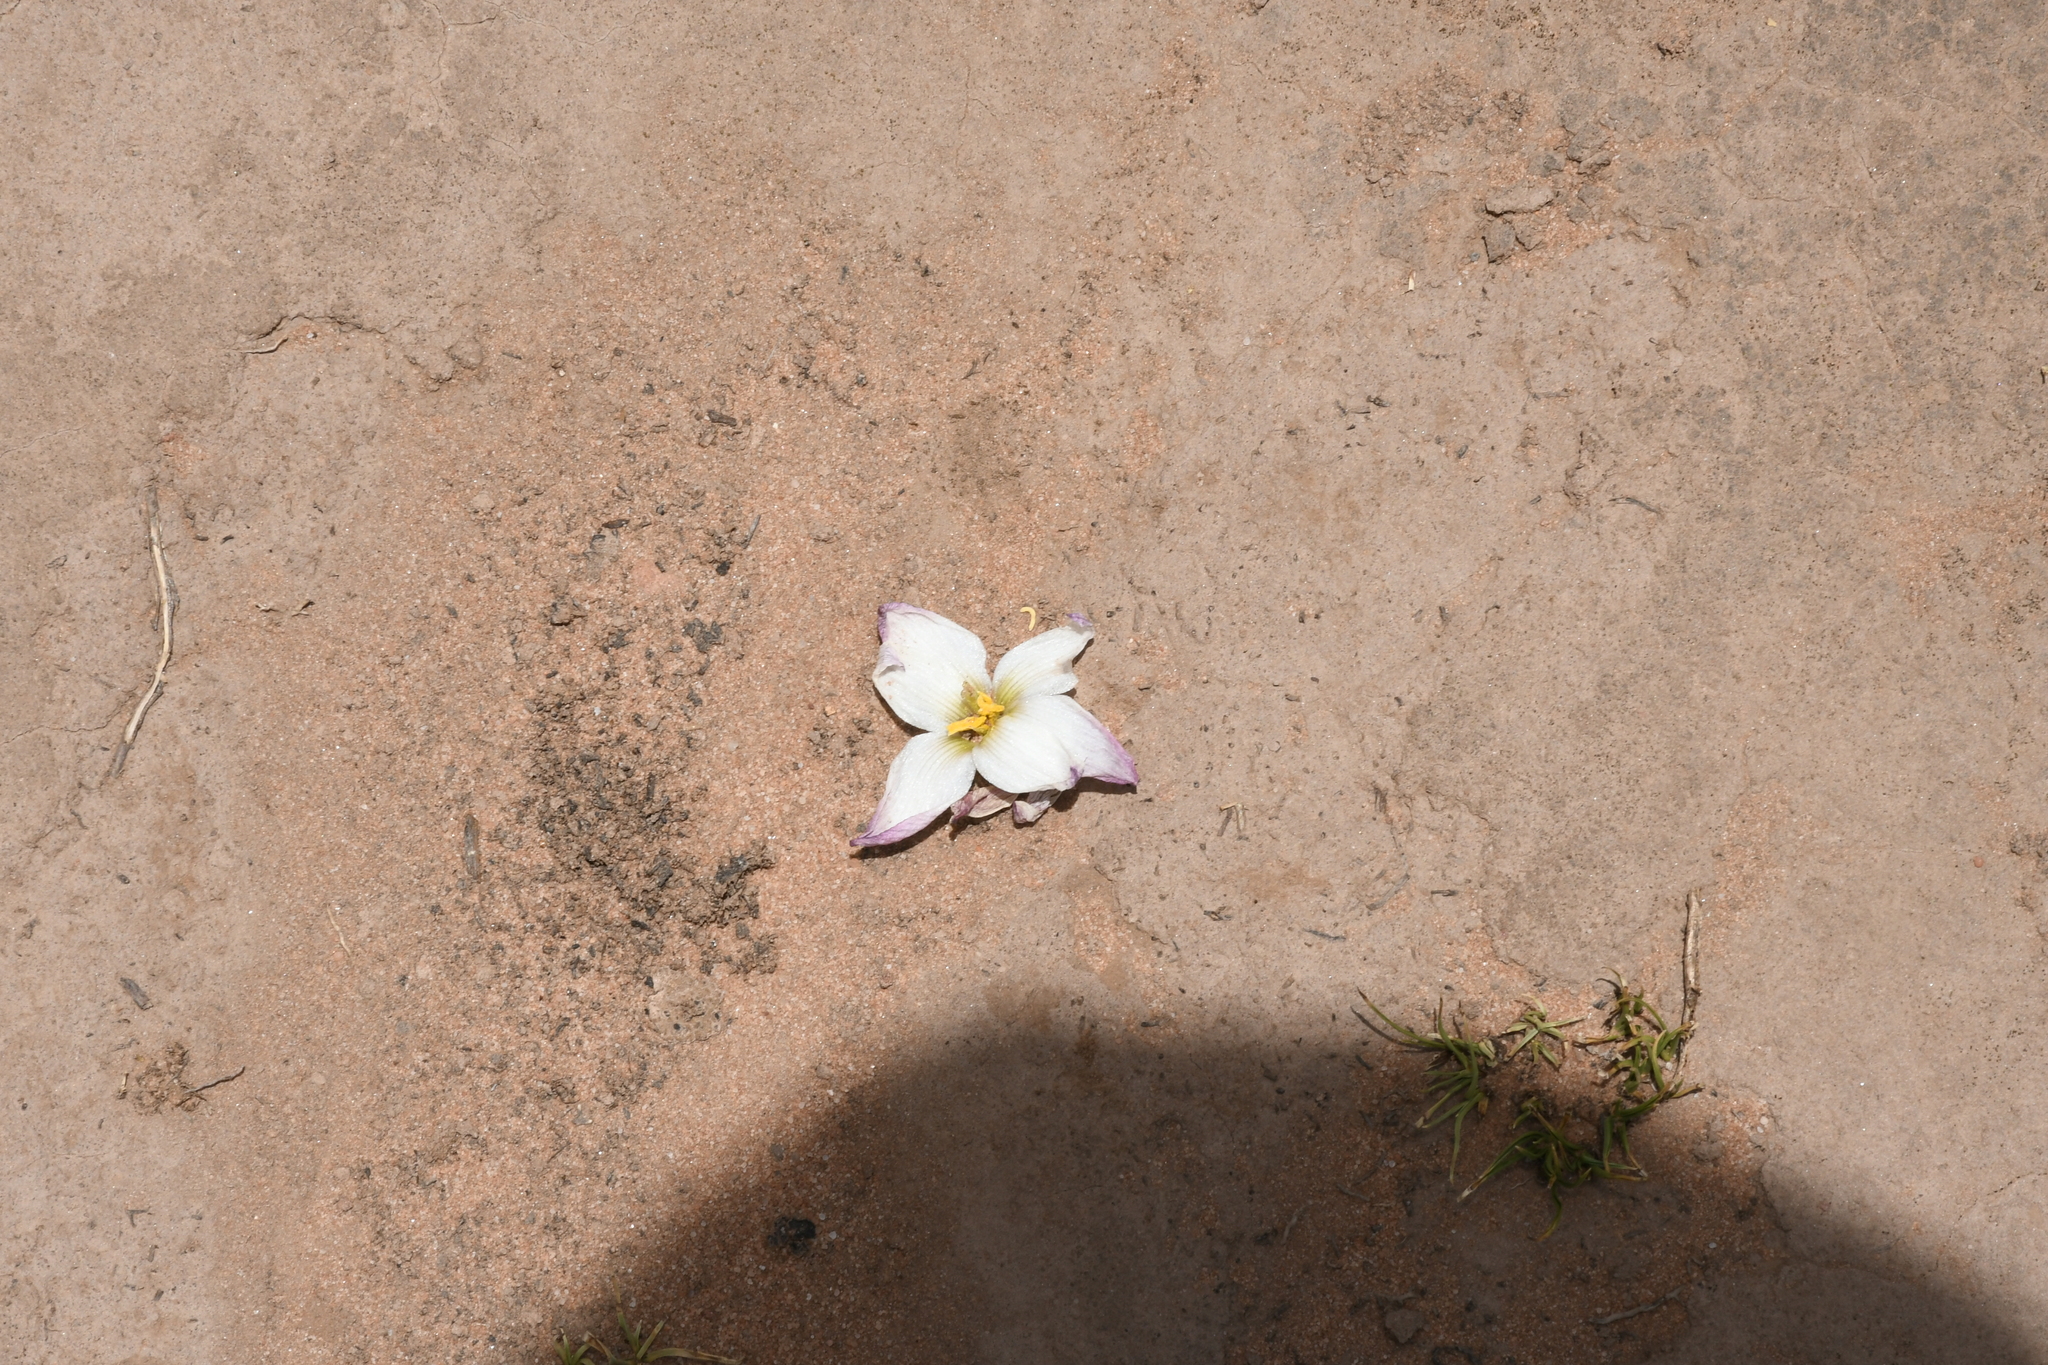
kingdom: Plantae
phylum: Tracheophyta
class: Liliopsida
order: Asparagales
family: Amaryllidaceae
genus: Zephyranthes
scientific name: Zephyranthes andina
